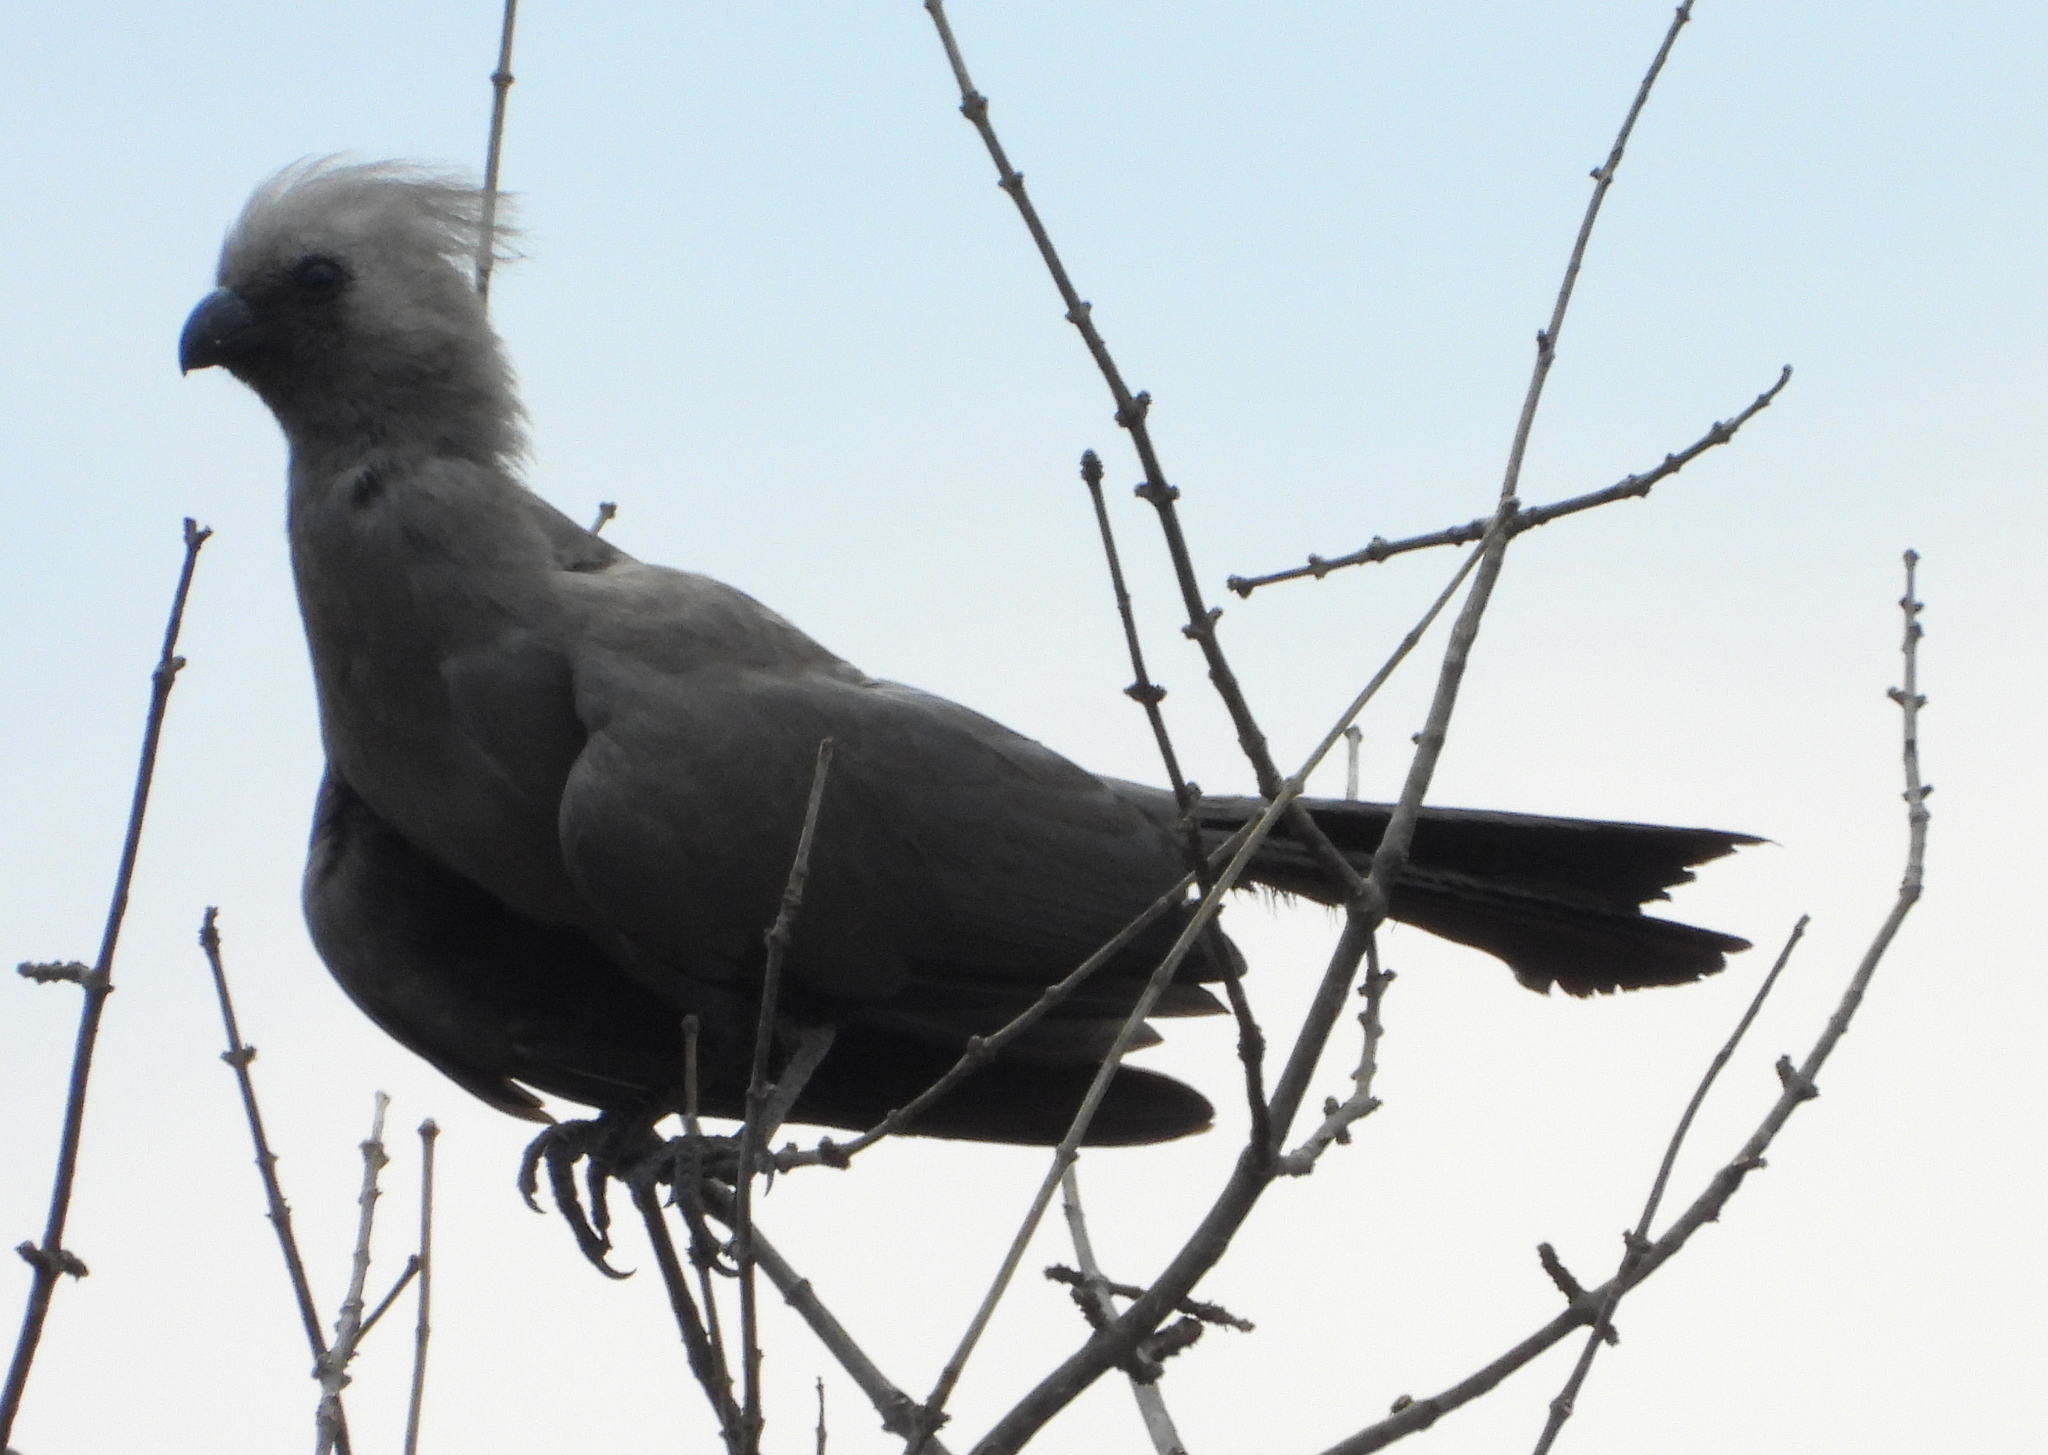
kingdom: Animalia
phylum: Chordata
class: Aves
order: Musophagiformes
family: Musophagidae
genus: Corythaixoides
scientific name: Corythaixoides concolor
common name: Grey go-away-bird
